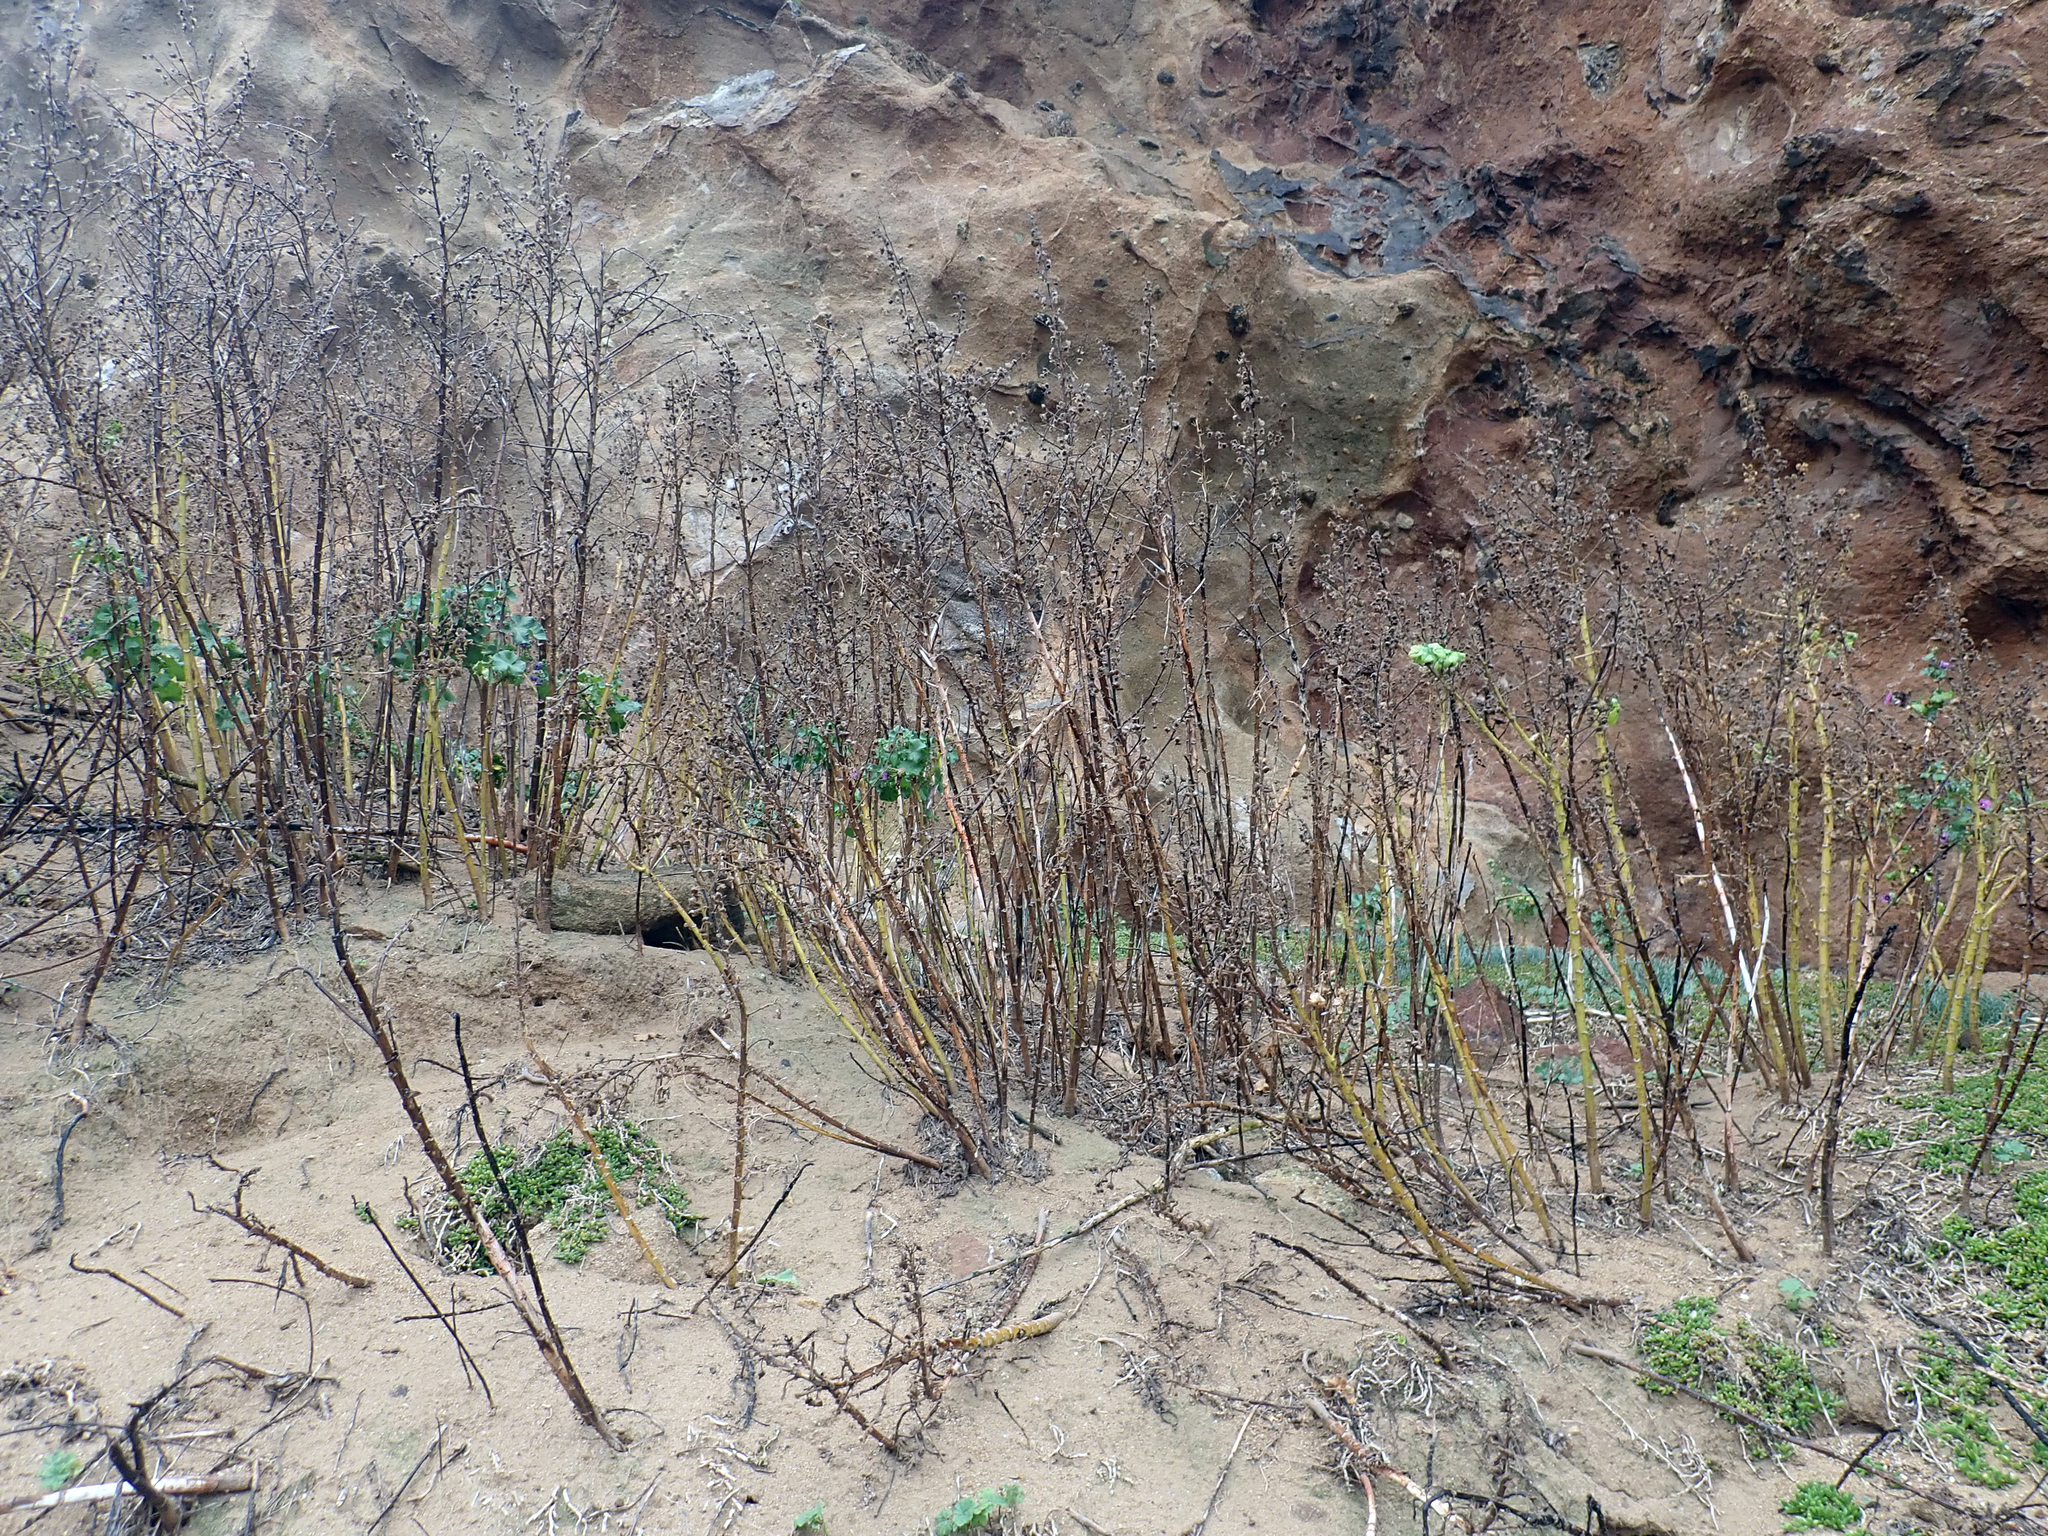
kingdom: Plantae
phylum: Tracheophyta
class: Magnoliopsida
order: Malvales
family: Malvaceae
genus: Malva
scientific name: Malva arborea
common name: Tree mallow
